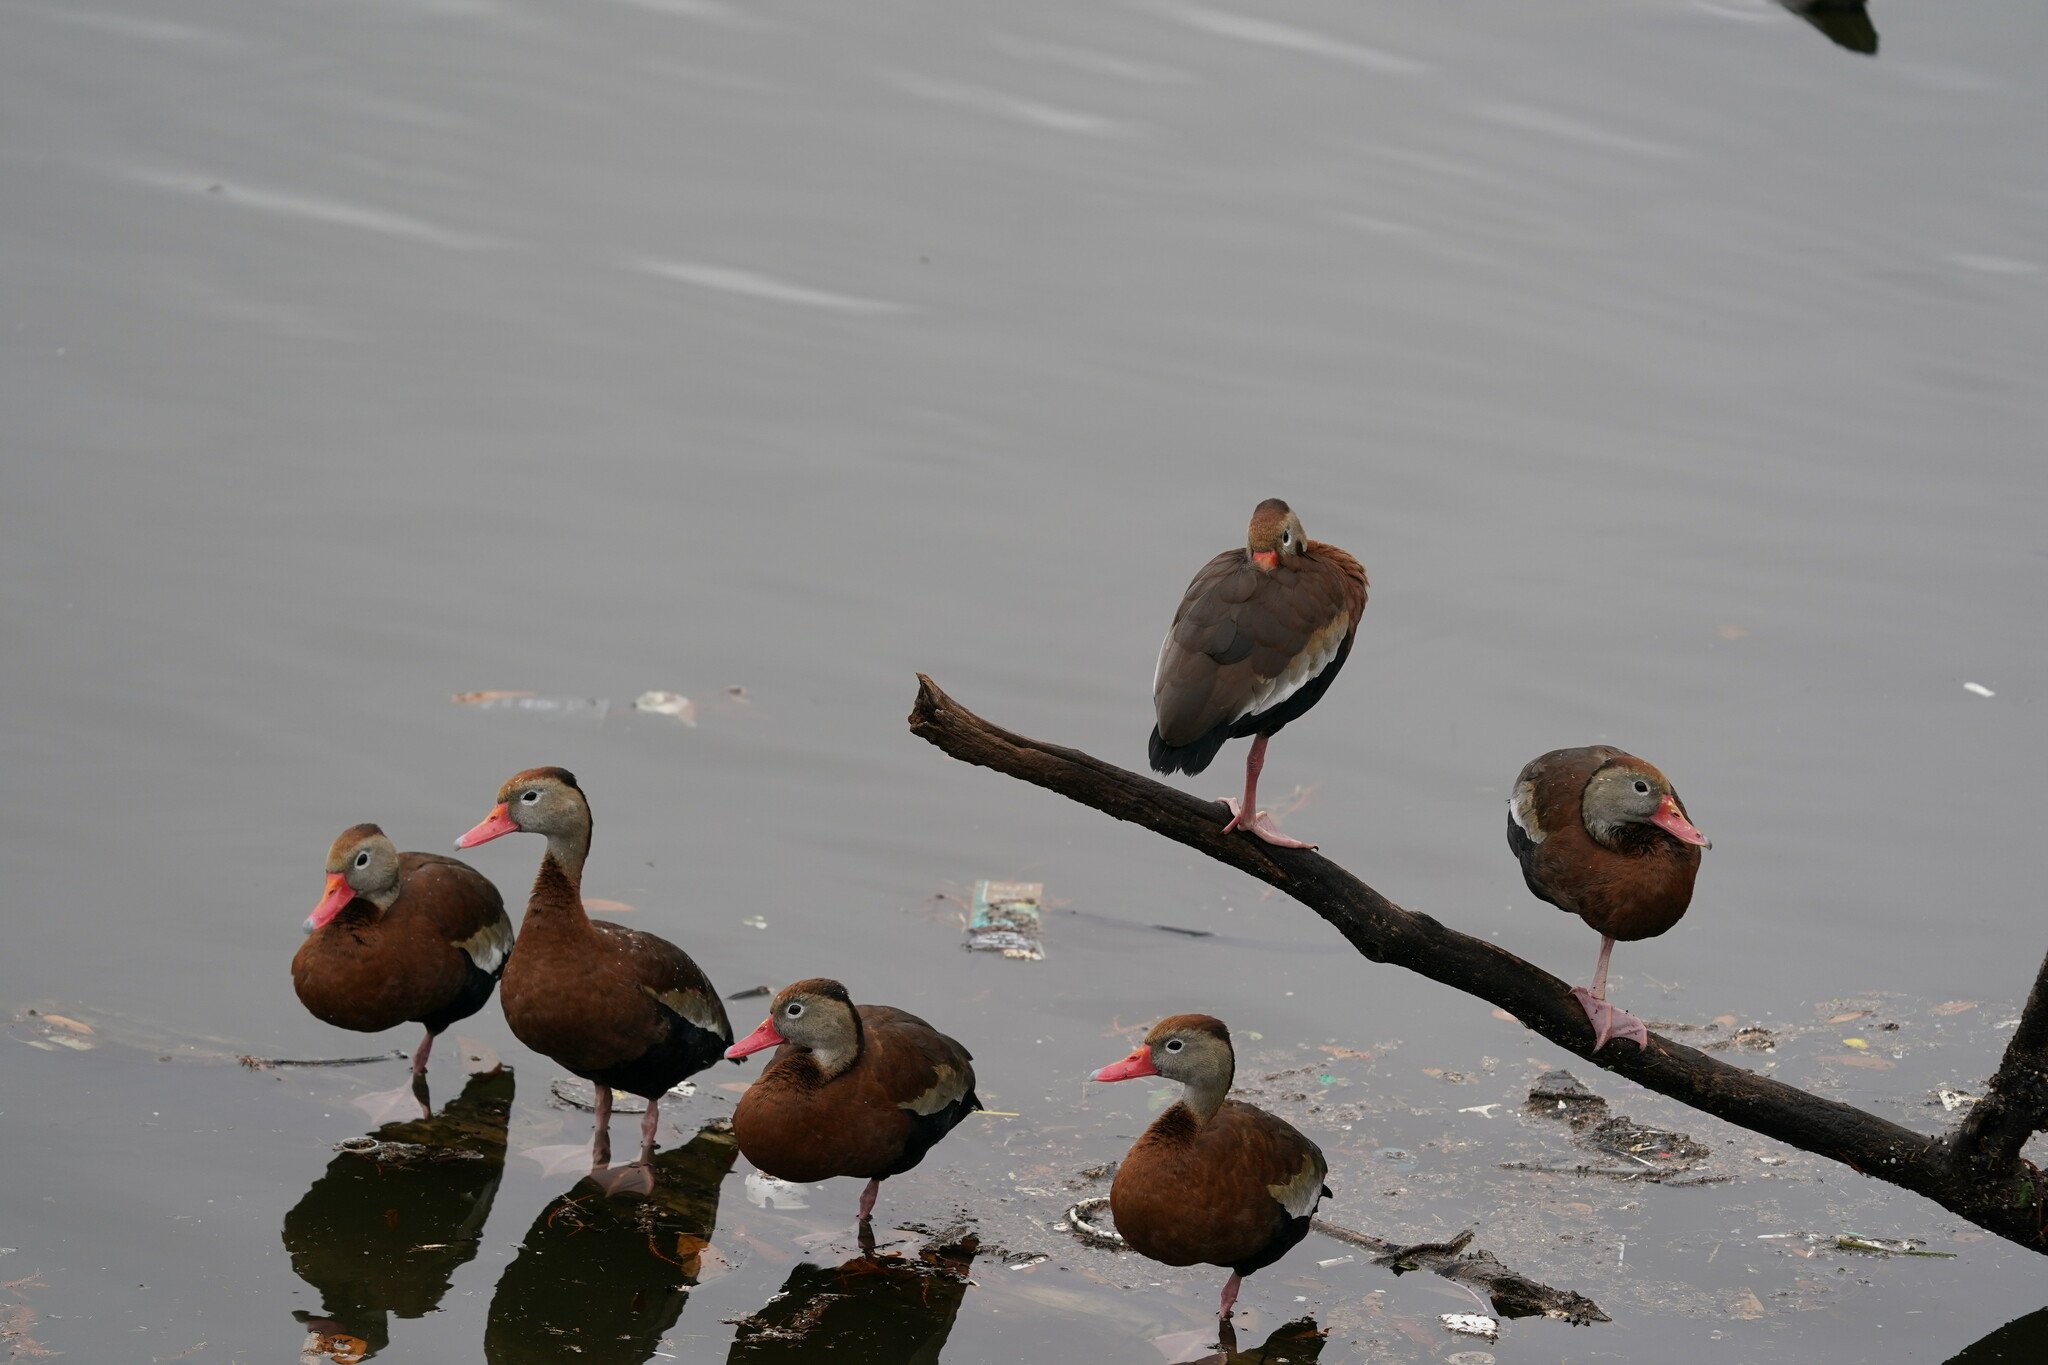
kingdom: Animalia
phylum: Chordata
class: Aves
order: Anseriformes
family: Anatidae
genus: Dendrocygna
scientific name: Dendrocygna autumnalis
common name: Black-bellied whistling duck
